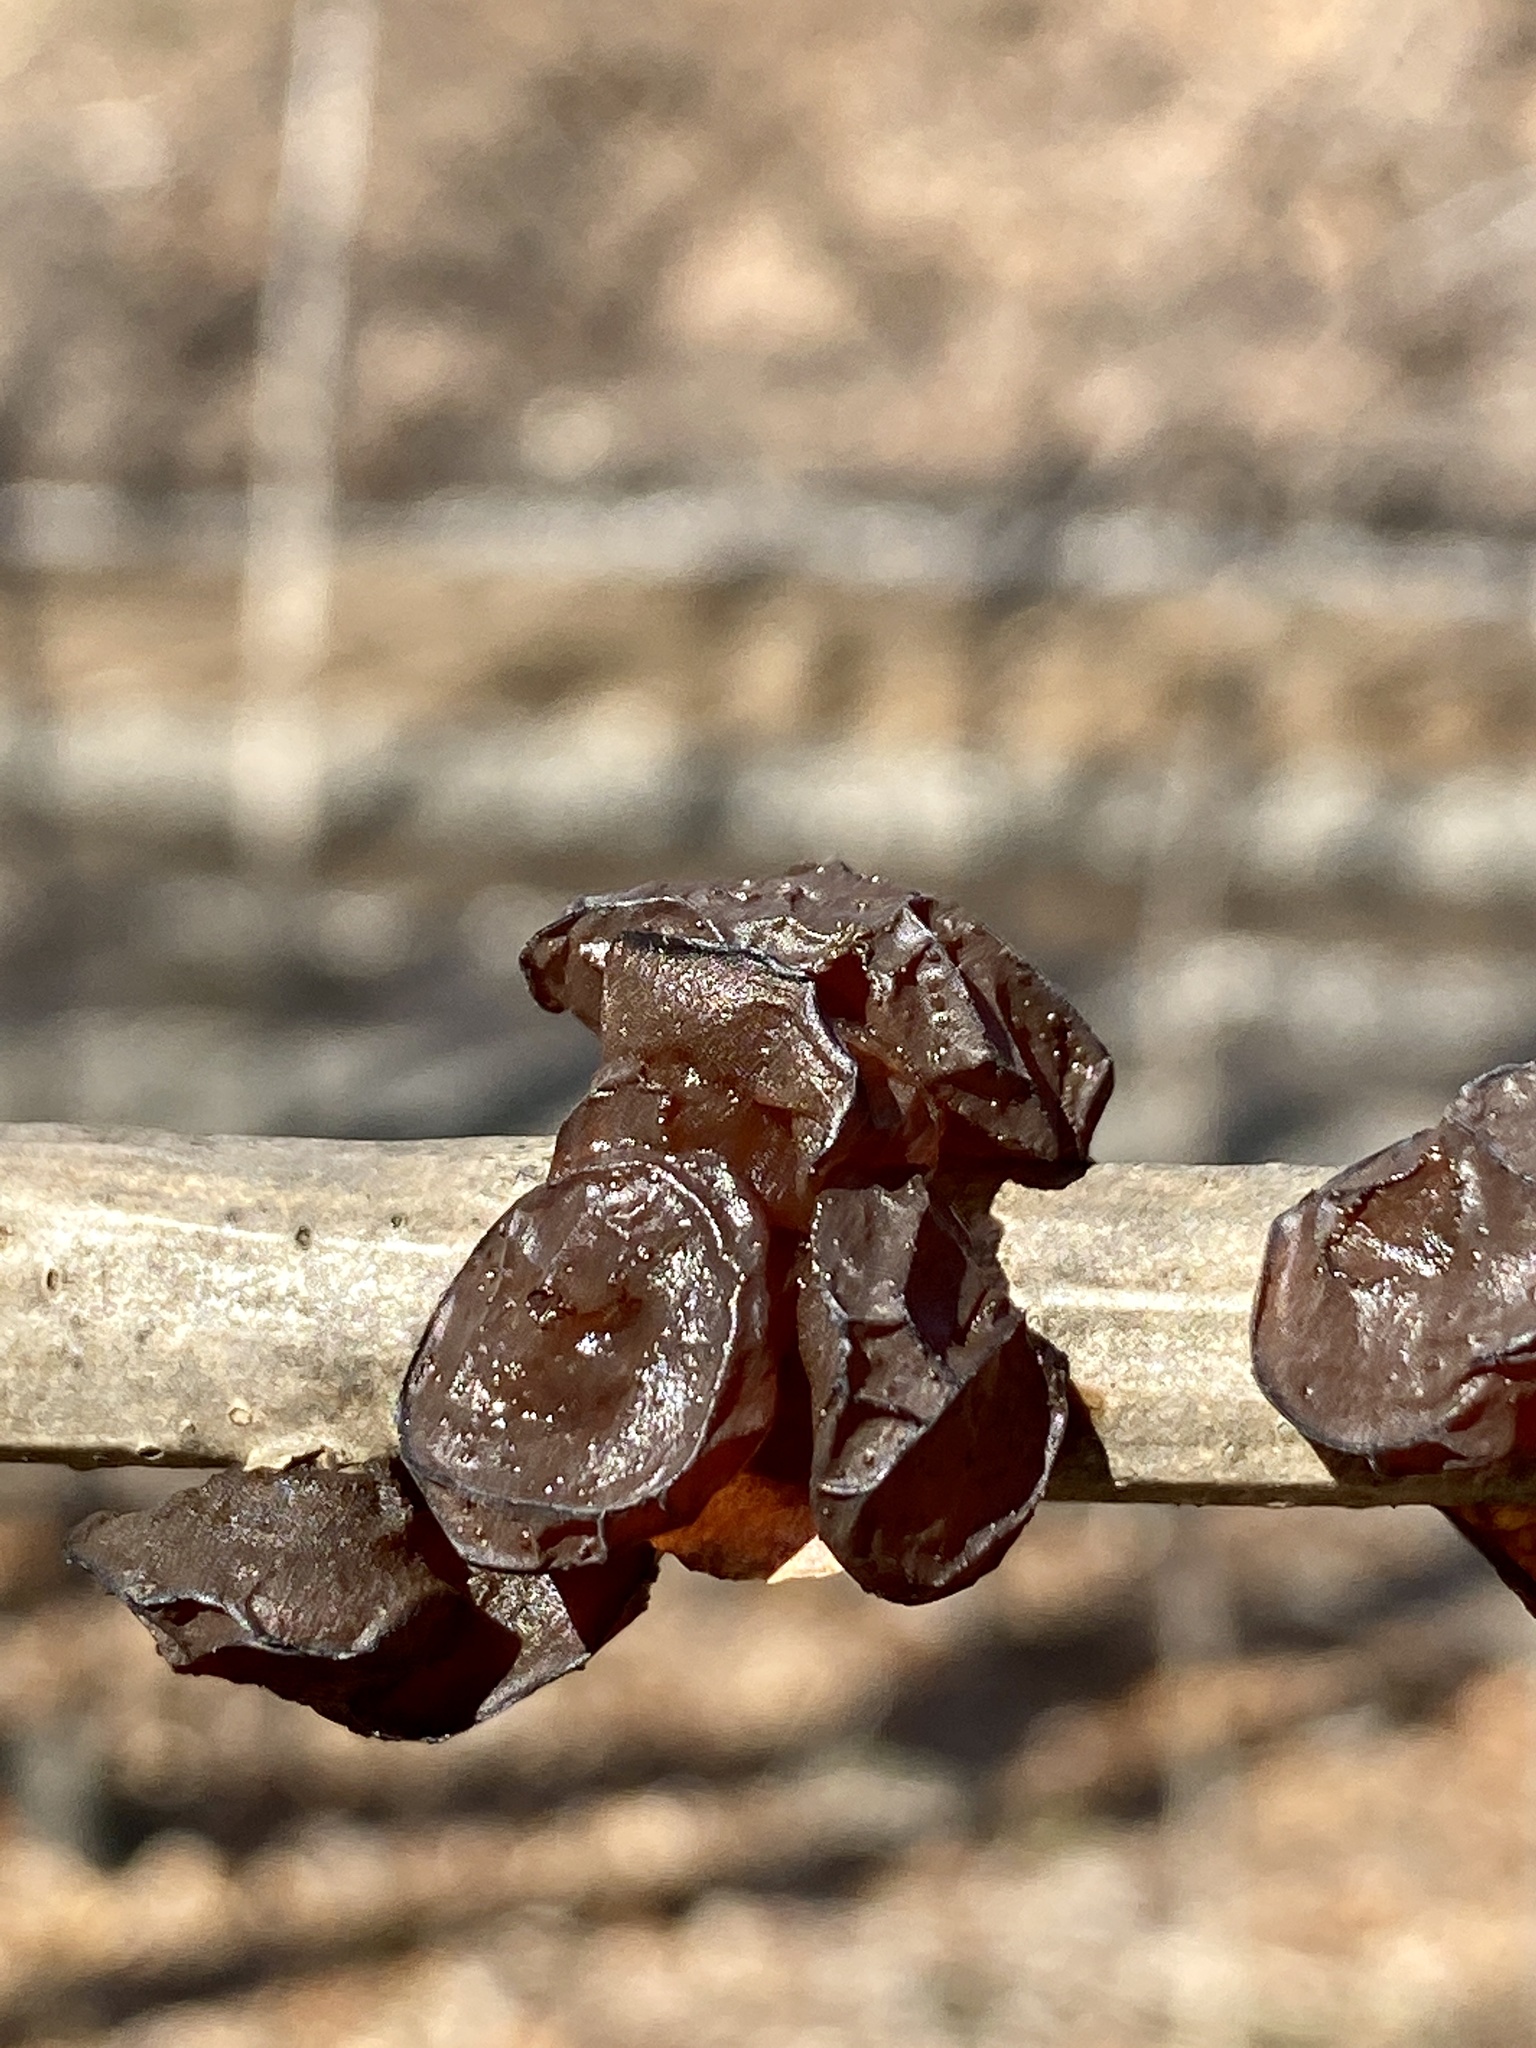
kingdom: Fungi
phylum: Basidiomycota
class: Agaricomycetes
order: Auriculariales
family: Auriculariaceae
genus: Exidia
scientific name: Exidia
